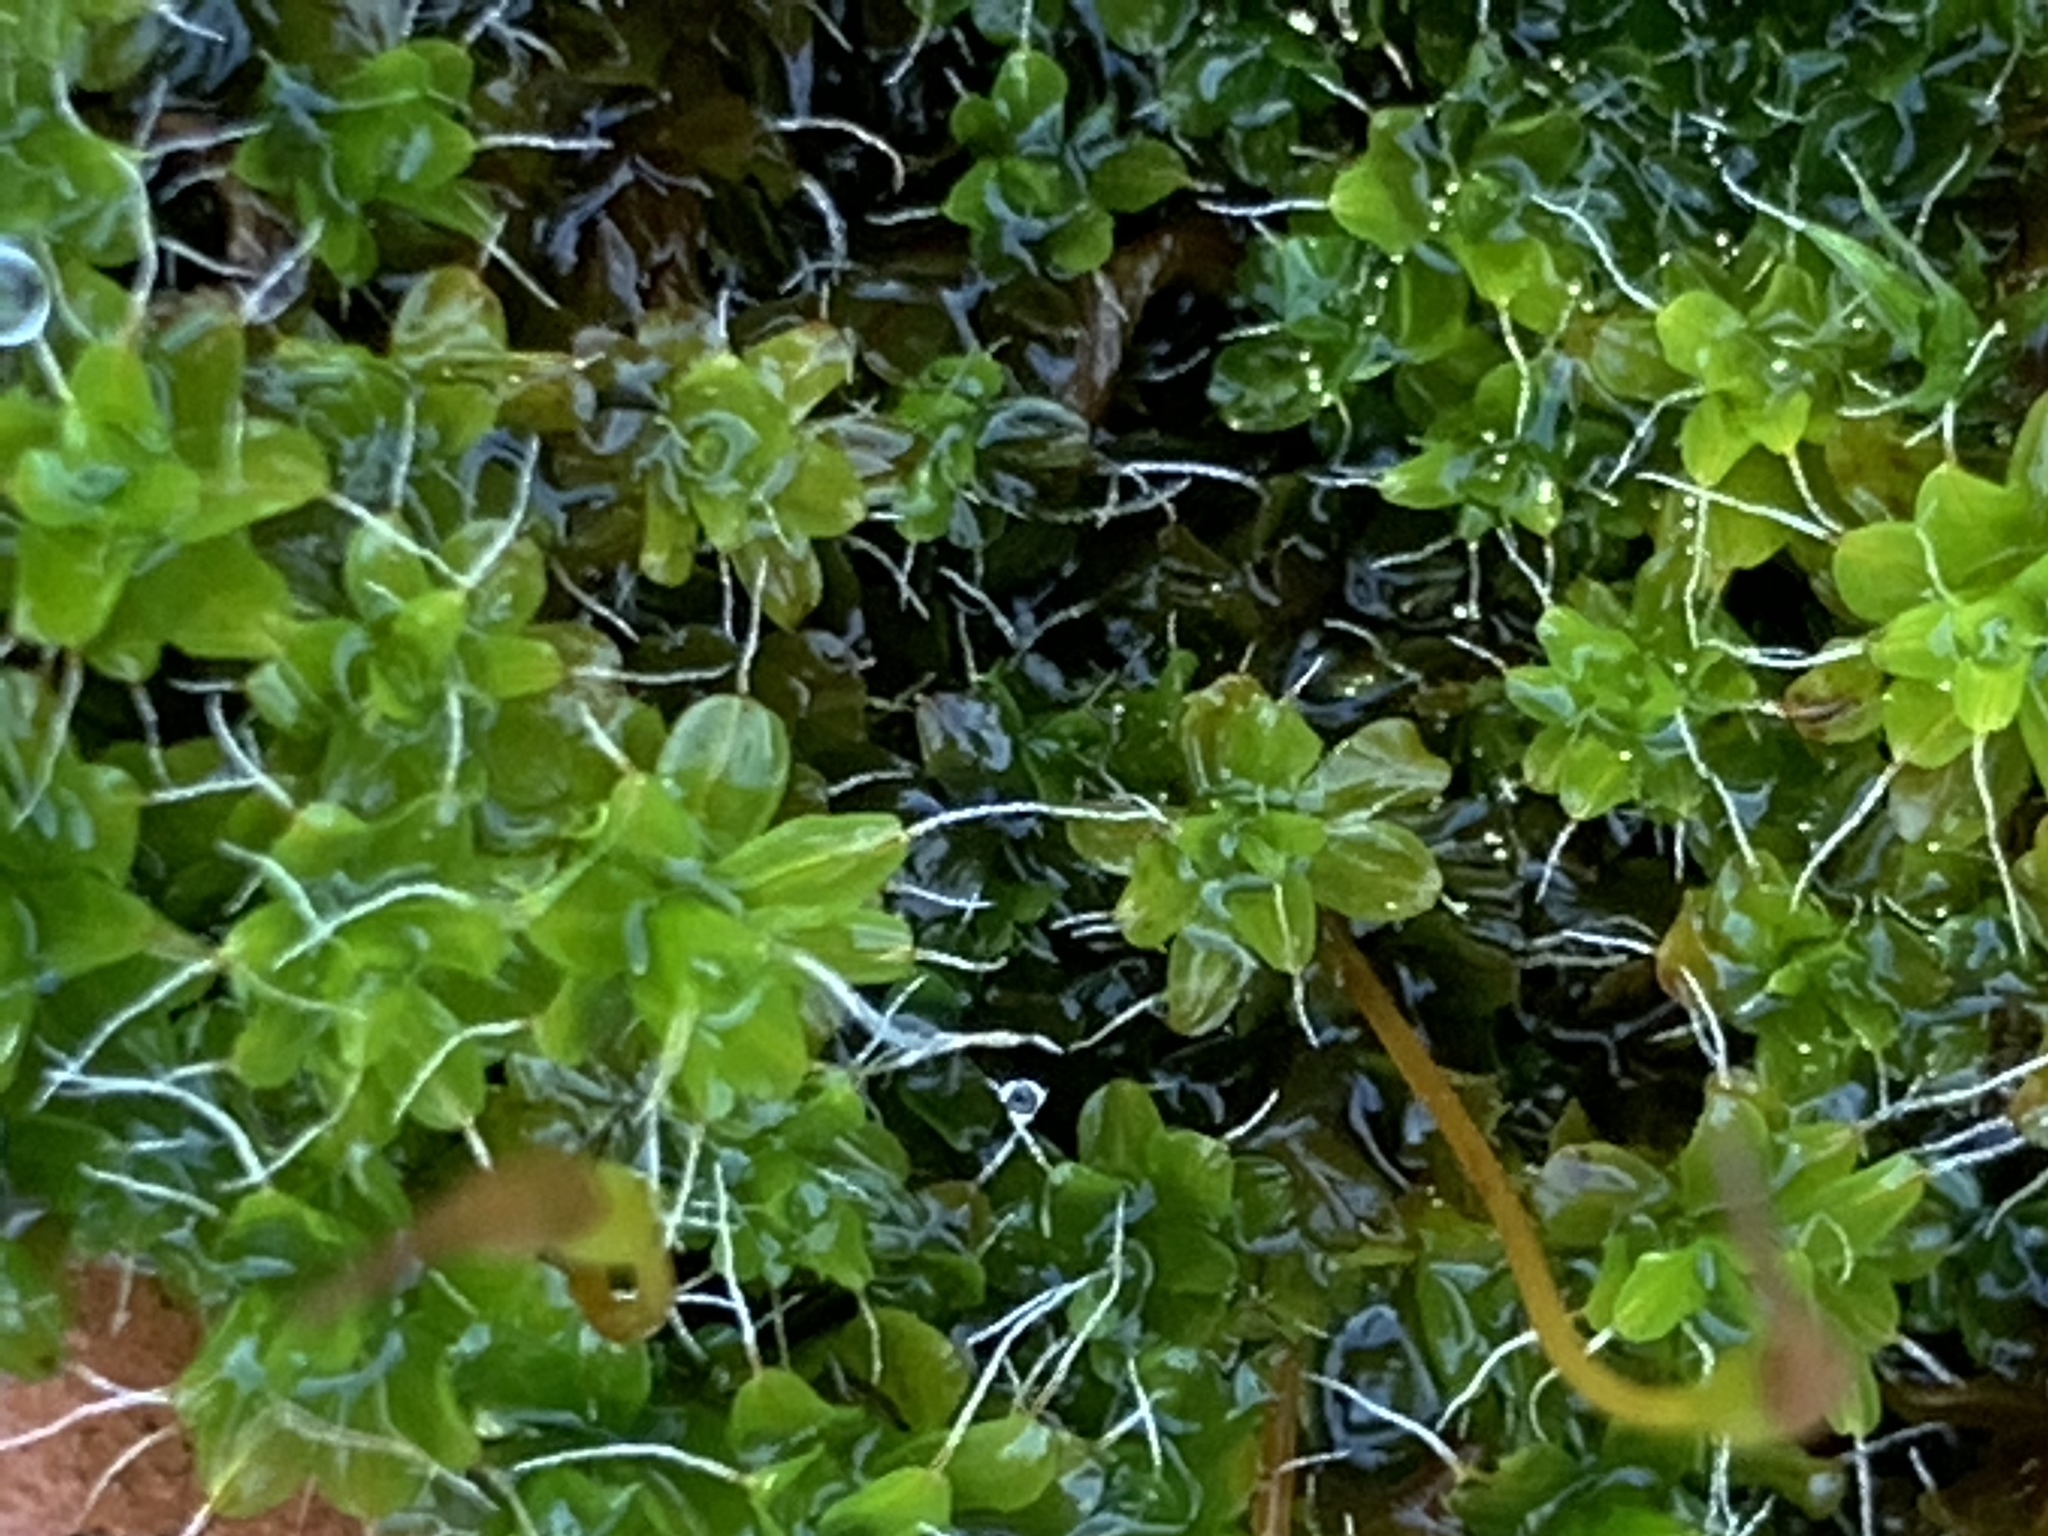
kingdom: Plantae
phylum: Bryophyta
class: Bryopsida
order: Pottiales
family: Pottiaceae
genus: Syntrichia
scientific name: Syntrichia montana
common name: Intermediate screw-moss
